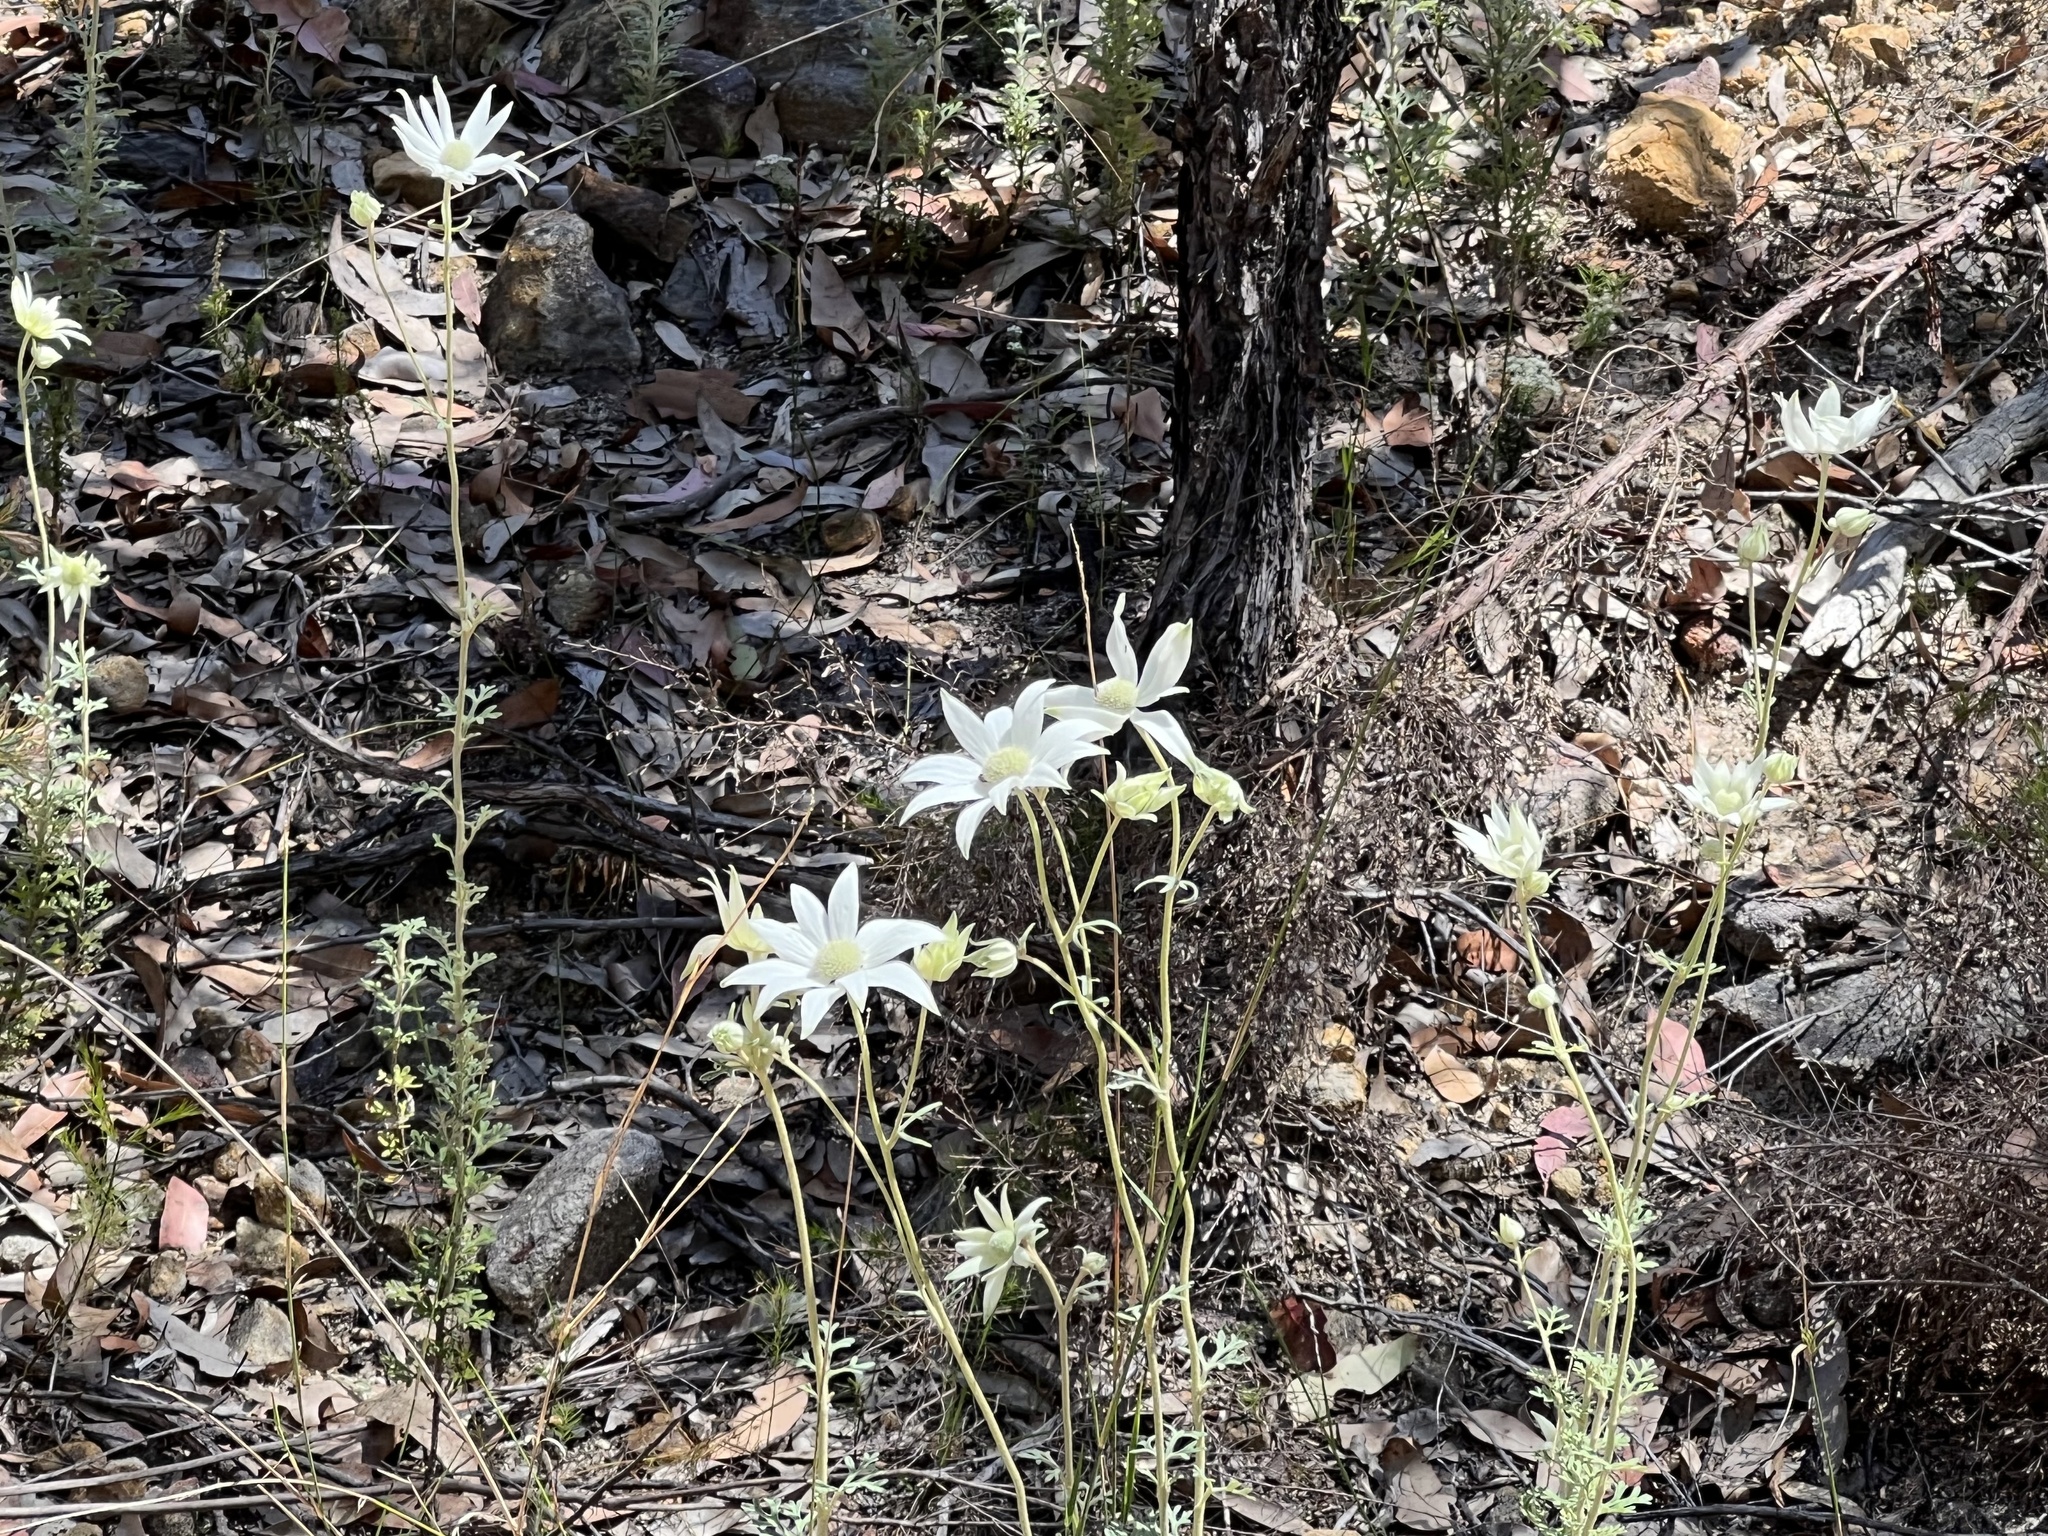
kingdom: Plantae
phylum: Tracheophyta
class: Magnoliopsida
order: Apiales
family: Apiaceae
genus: Actinotus
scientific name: Actinotus helianthi
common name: Flannel-flower
